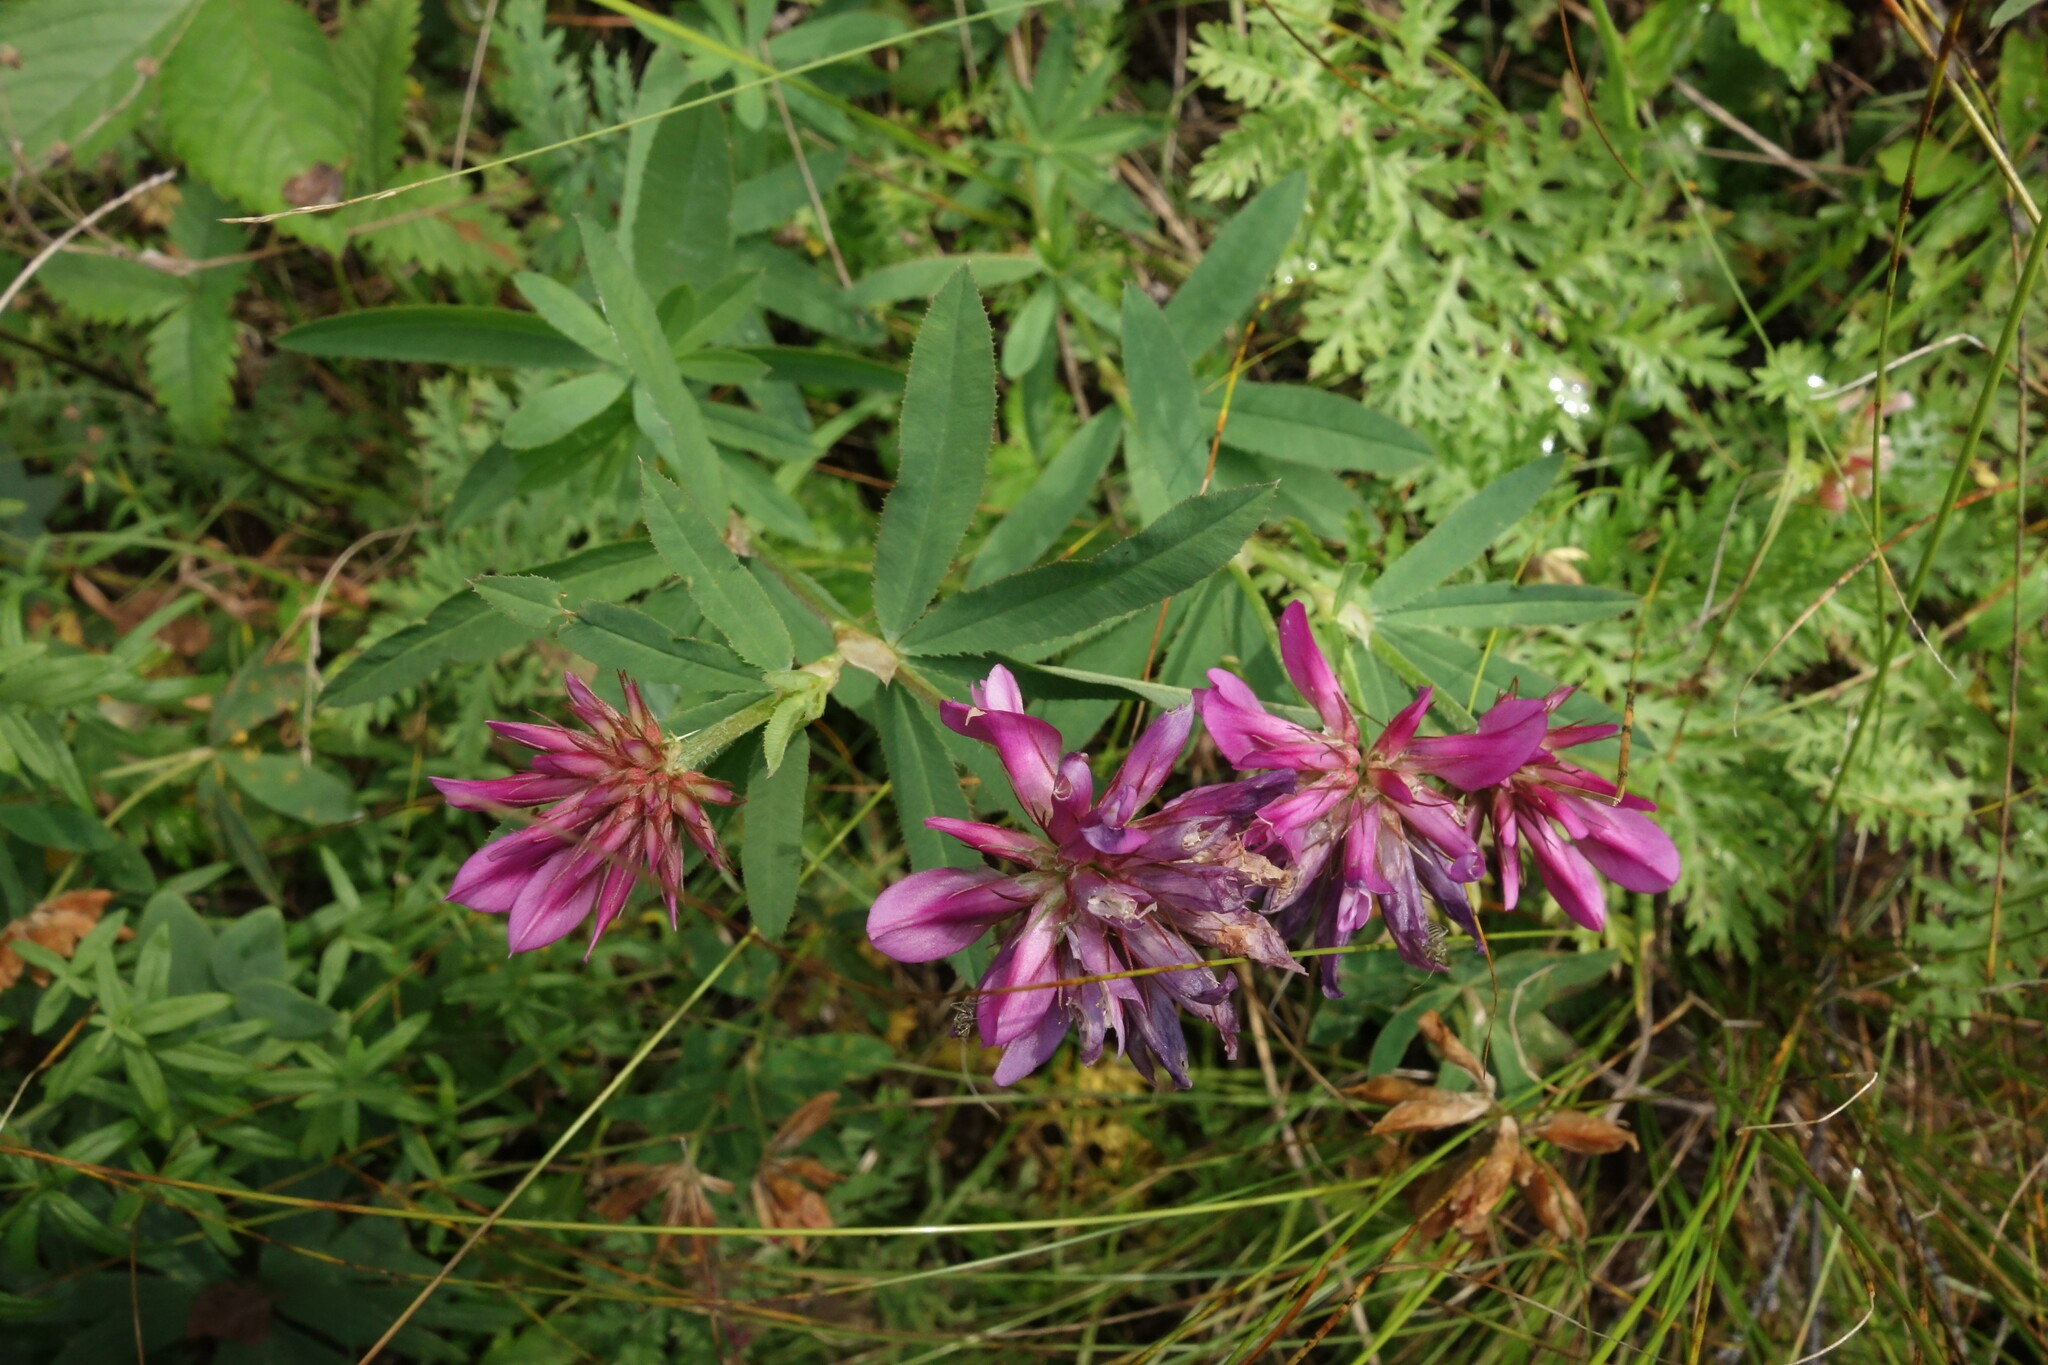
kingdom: Plantae
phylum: Tracheophyta
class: Magnoliopsida
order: Fabales
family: Fabaceae
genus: Trifolium
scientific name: Trifolium lupinaster
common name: Lupine clover
